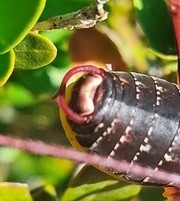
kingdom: Animalia
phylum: Arthropoda
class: Insecta
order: Orthoptera
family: Tettigoniidae
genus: Barbitistes
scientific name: Barbitistes serricauda
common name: Saw-tailed bush-cricket
